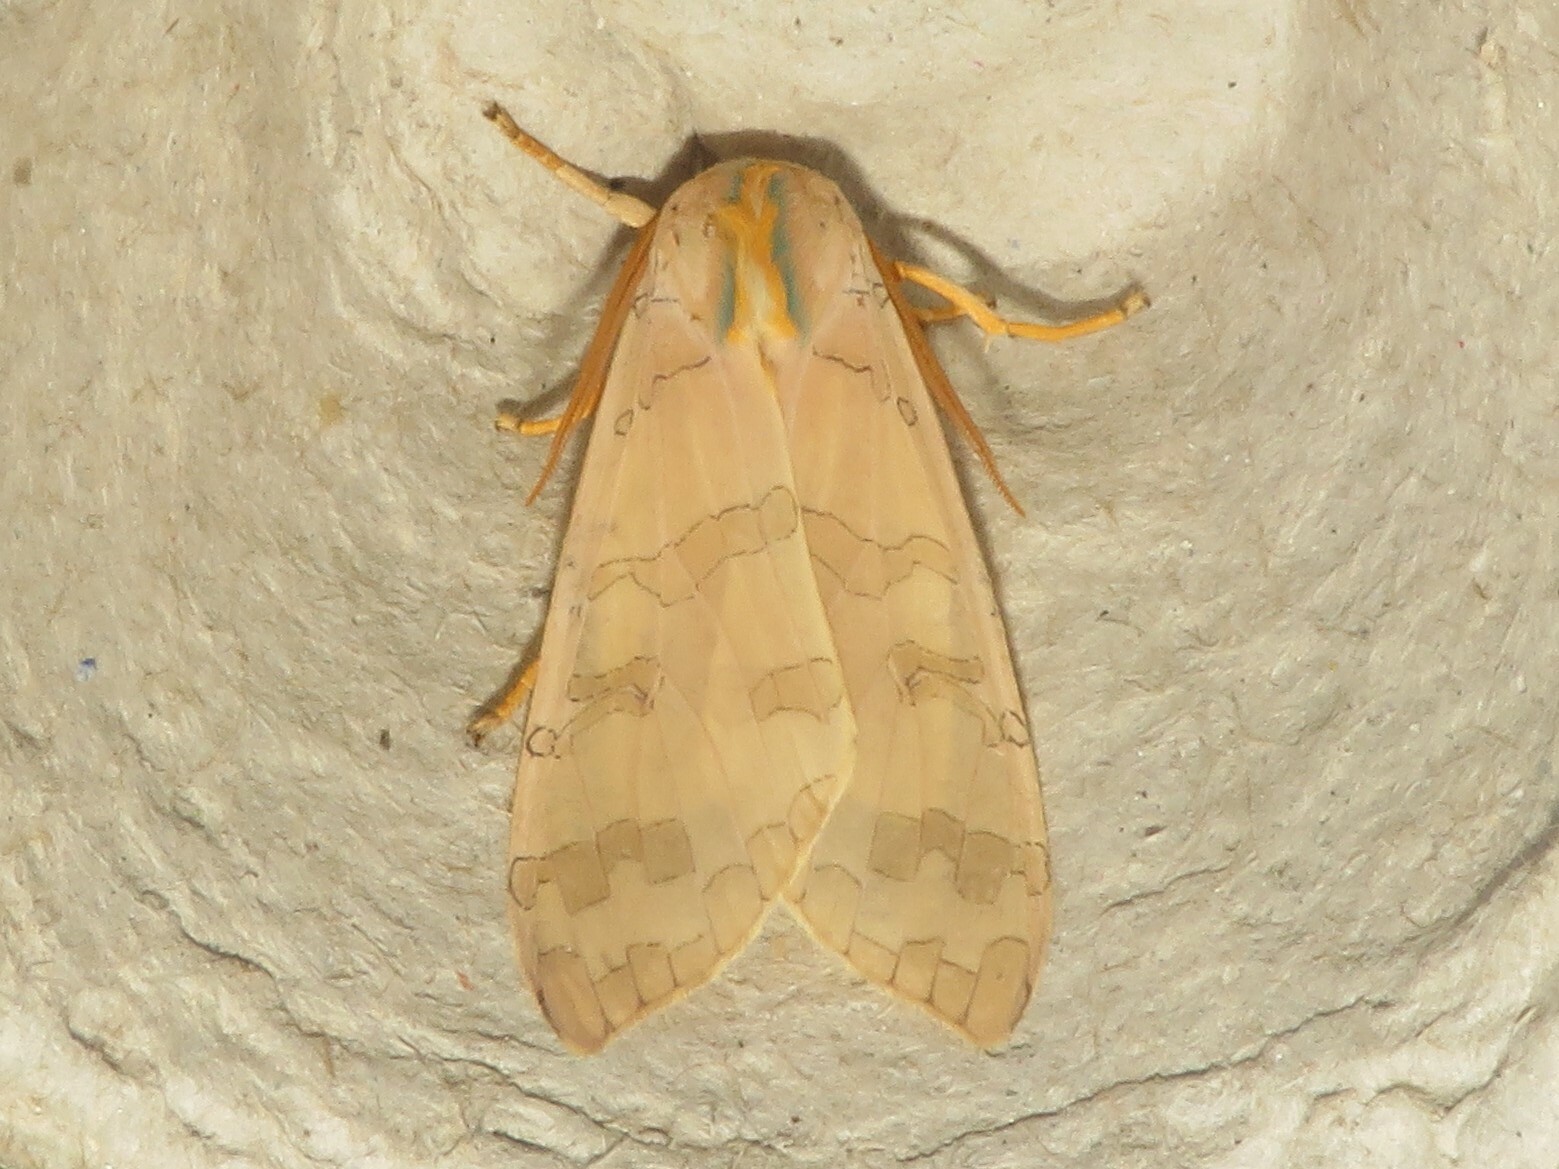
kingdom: Animalia
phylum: Arthropoda
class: Insecta
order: Lepidoptera
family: Erebidae
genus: Halysidota
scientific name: Halysidota tessellaris
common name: Banded tussock moth
